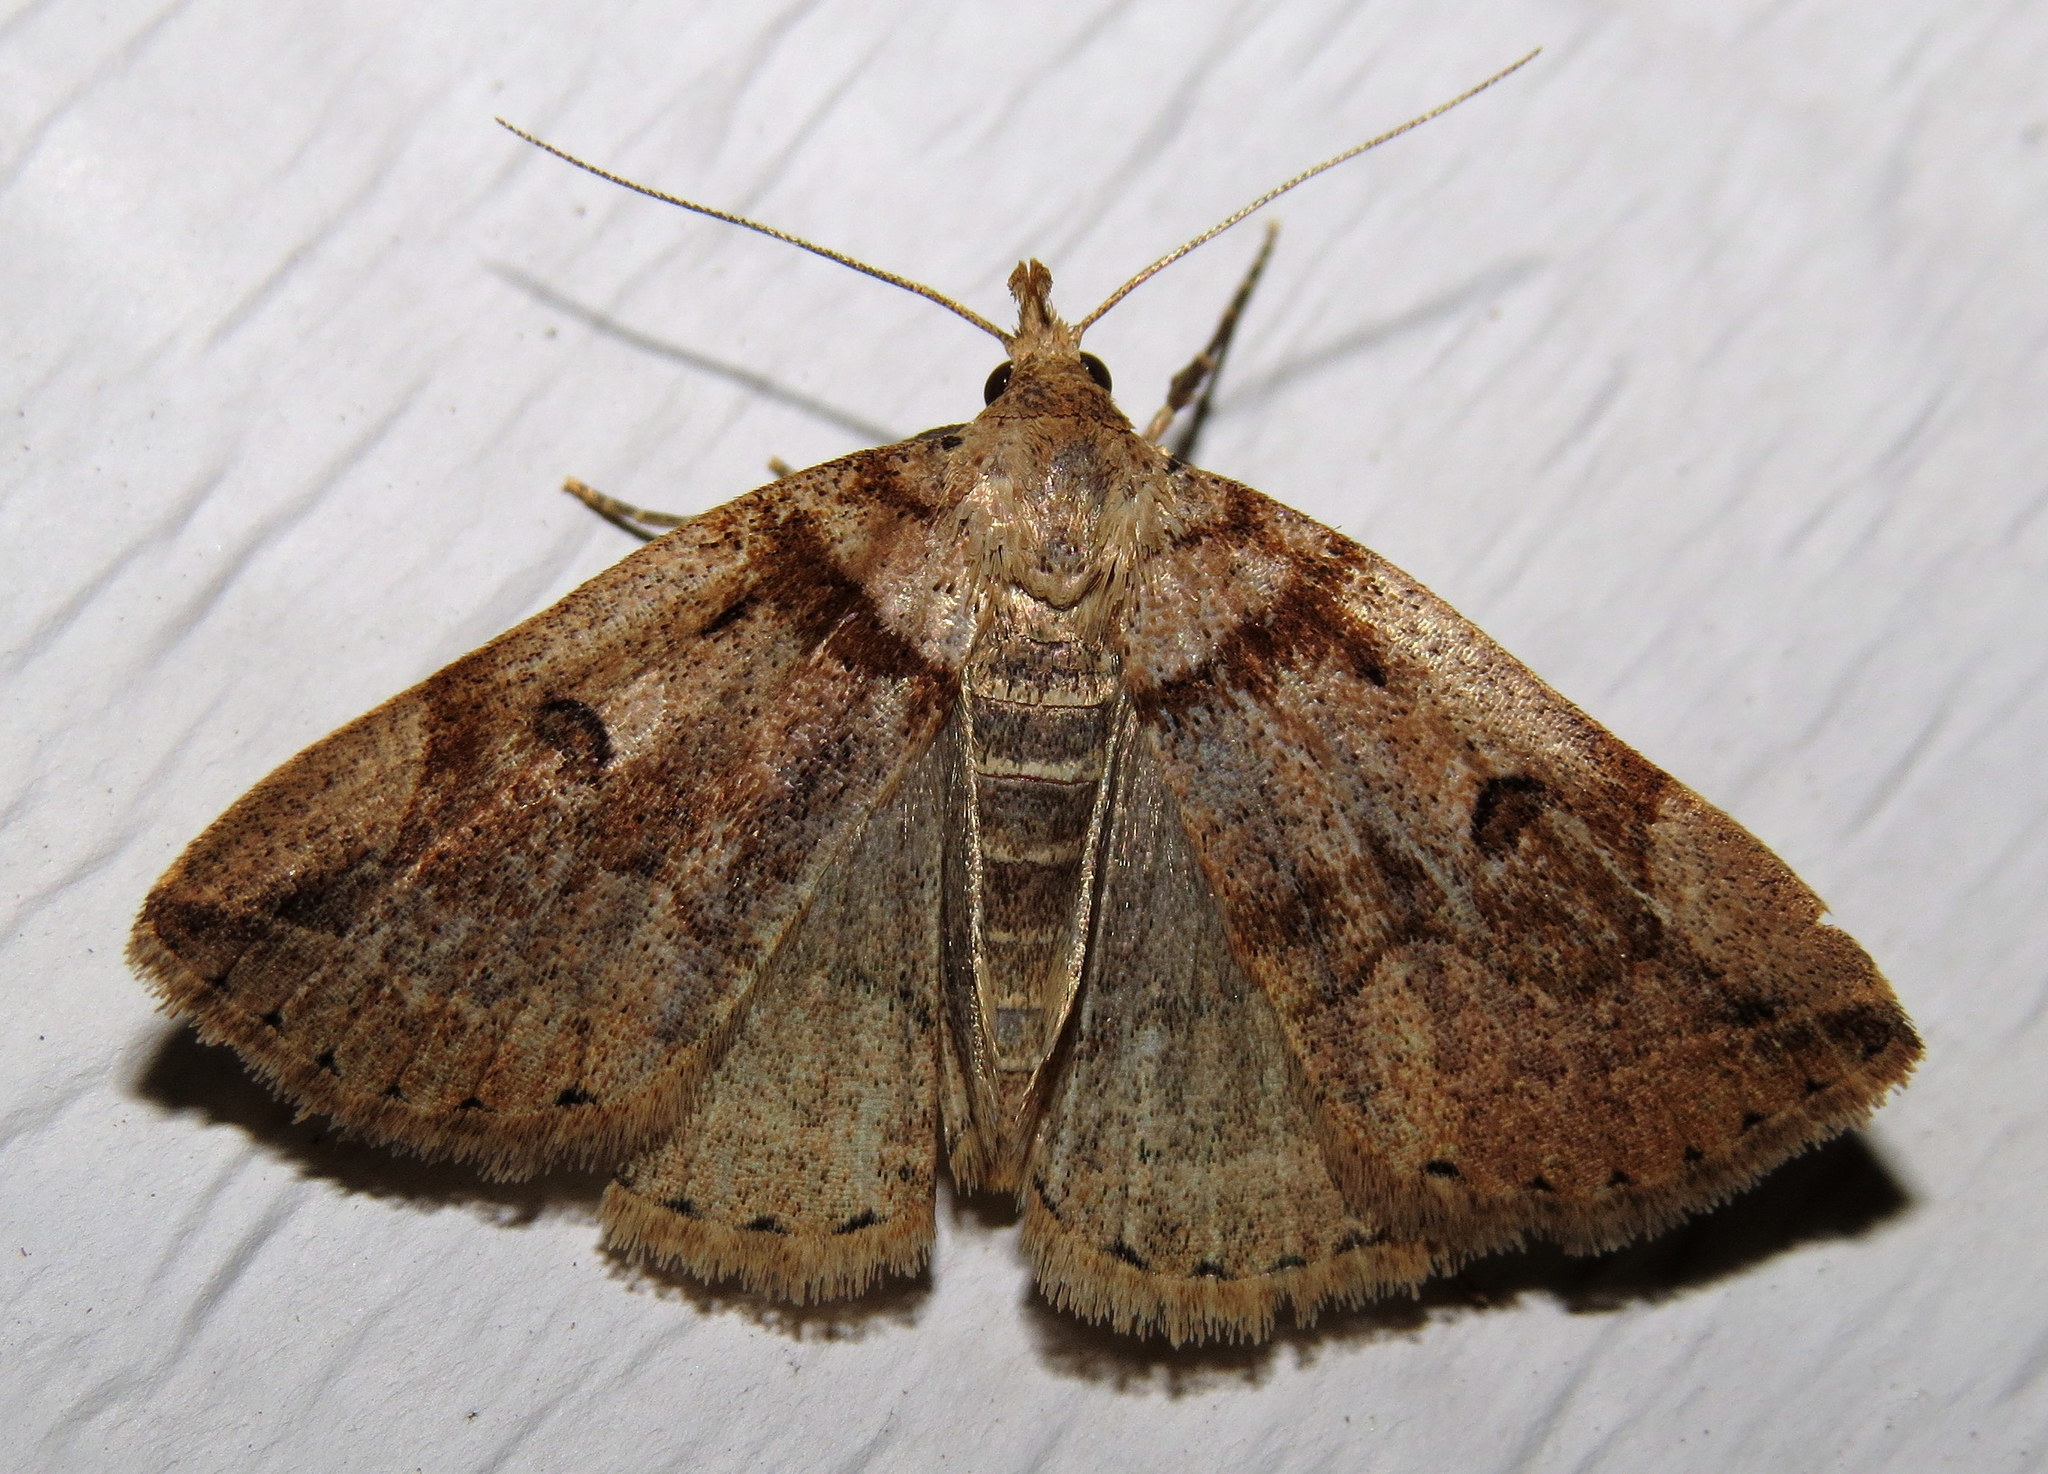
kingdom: Animalia
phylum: Arthropoda
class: Insecta
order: Lepidoptera
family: Erebidae
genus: Zanclognatha
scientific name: Zanclognatha laevigata
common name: Variable fan-foot
